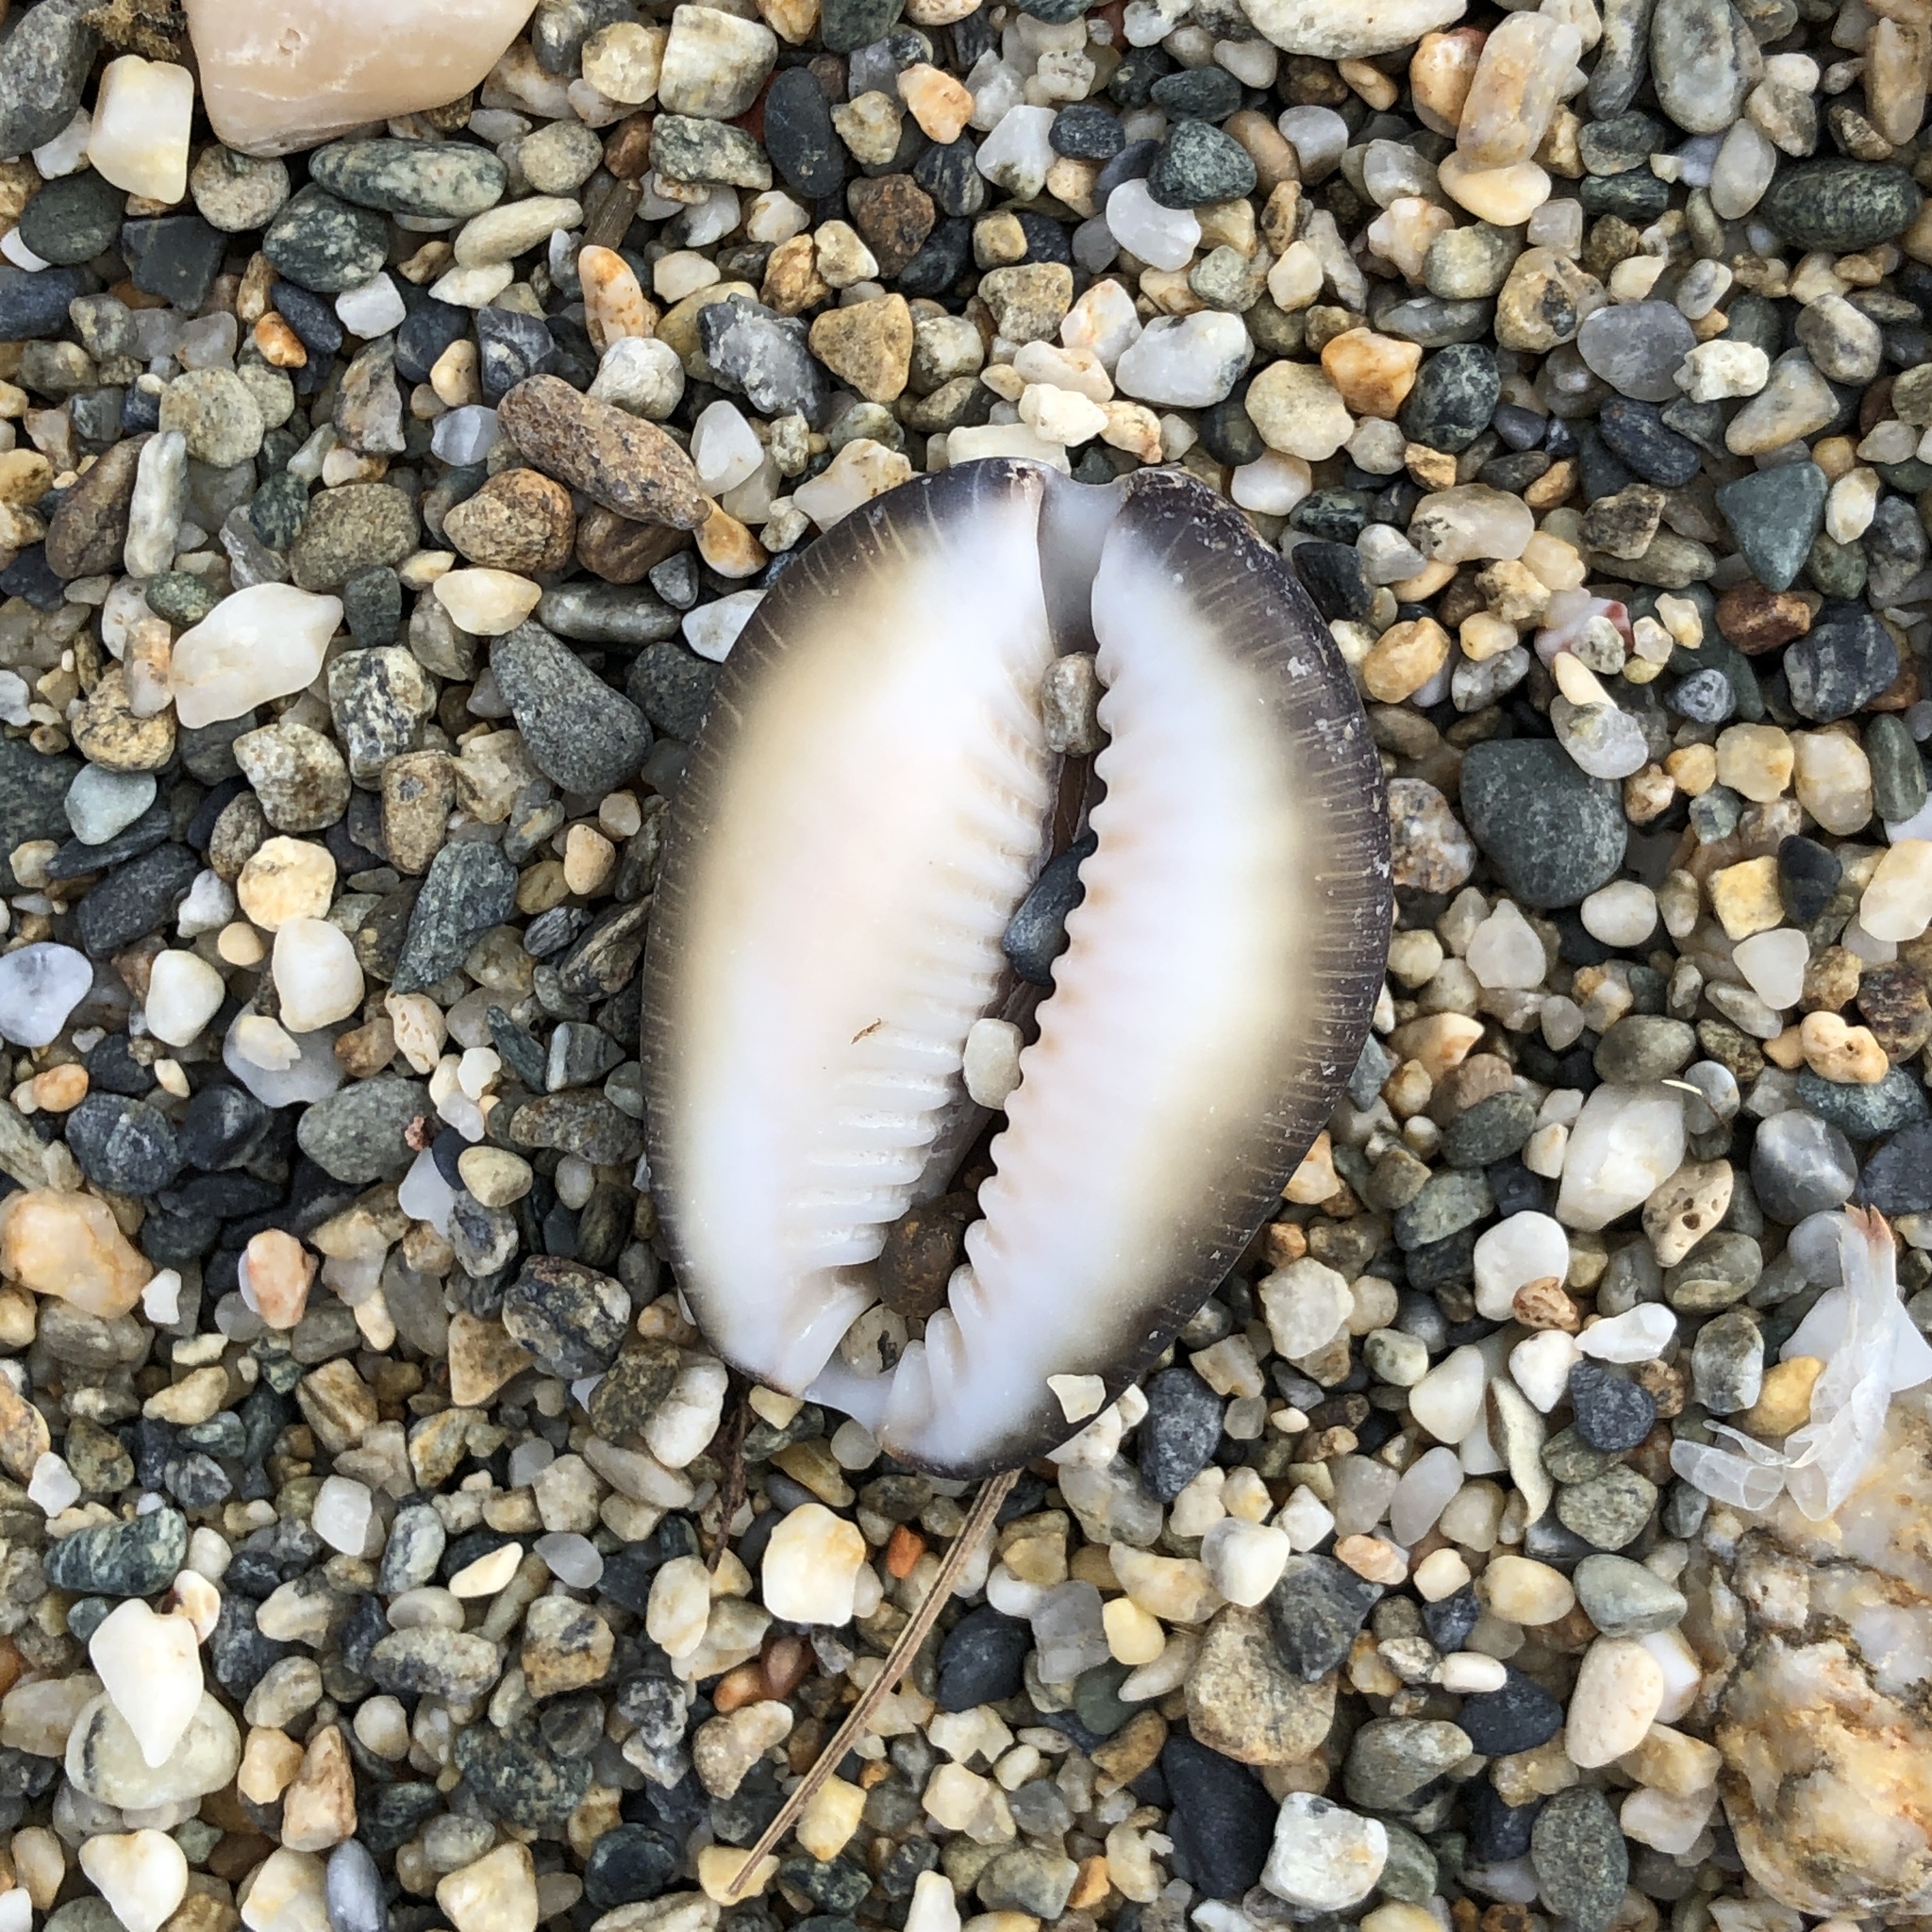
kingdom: Animalia
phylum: Mollusca
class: Gastropoda
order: Littorinimorpha
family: Cypraeidae
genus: Monetaria
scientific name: Monetaria caputserpentis
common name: Serpent's head cowrie
